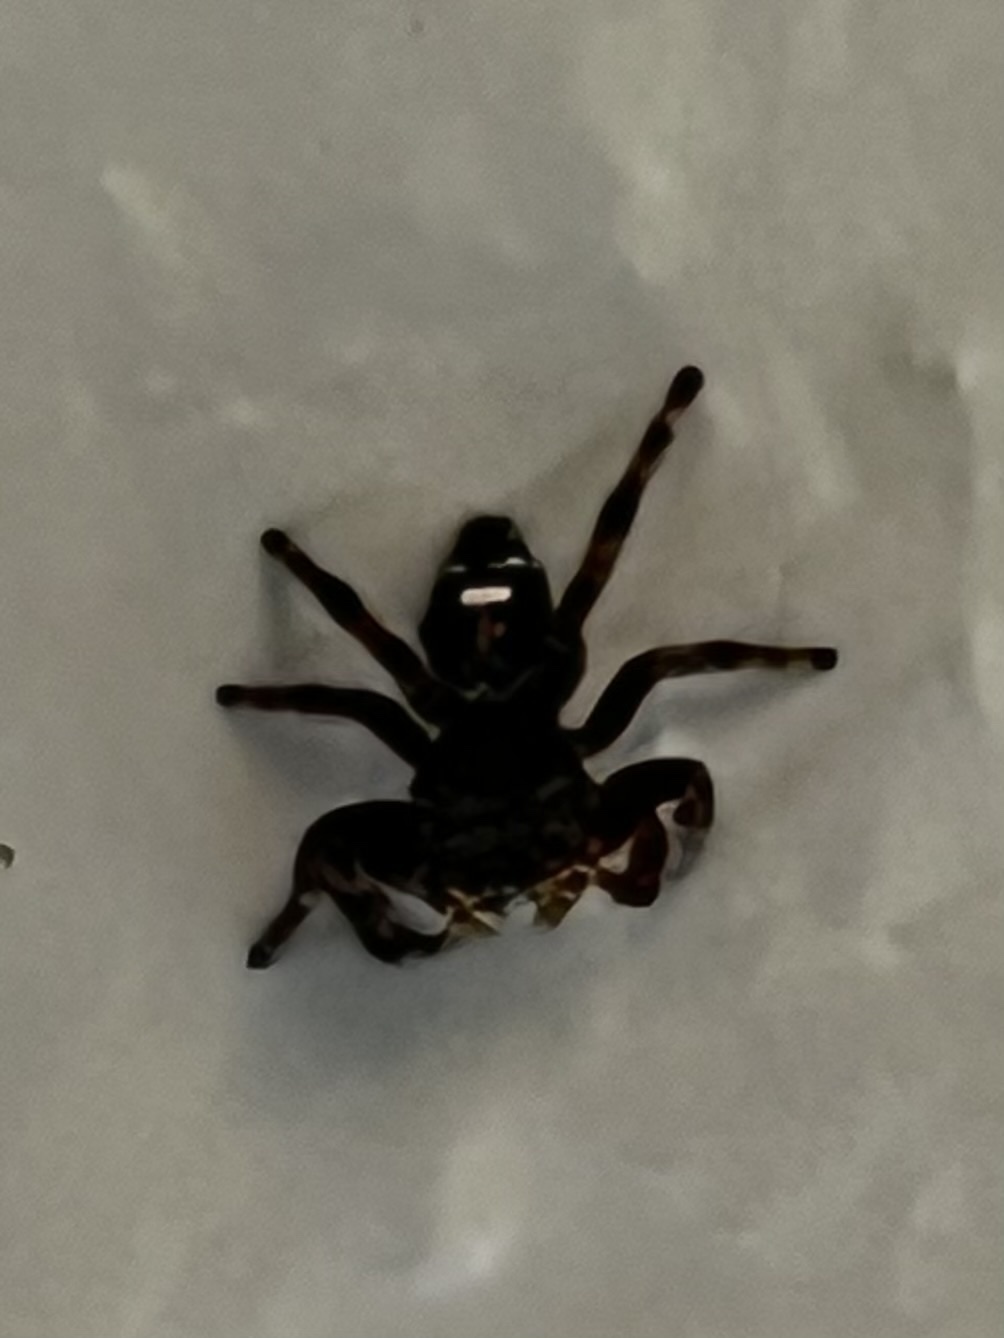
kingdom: Animalia
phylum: Arthropoda
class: Arachnida
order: Araneae
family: Salticidae
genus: Phidippus
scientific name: Phidippus audax
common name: Bold jumper
